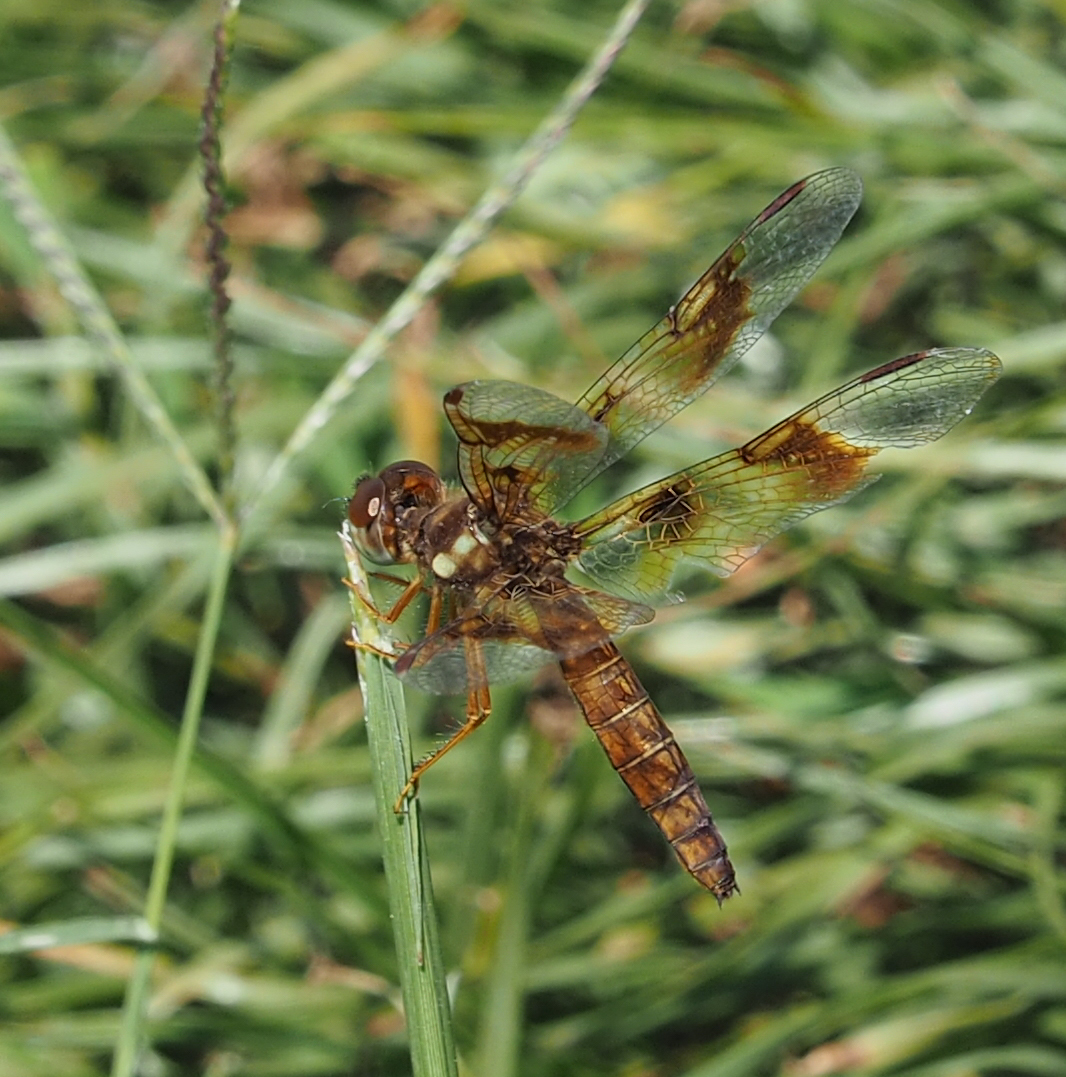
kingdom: Animalia
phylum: Arthropoda
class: Insecta
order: Odonata
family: Libellulidae
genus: Perithemis
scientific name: Perithemis tenera
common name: Eastern amberwing
